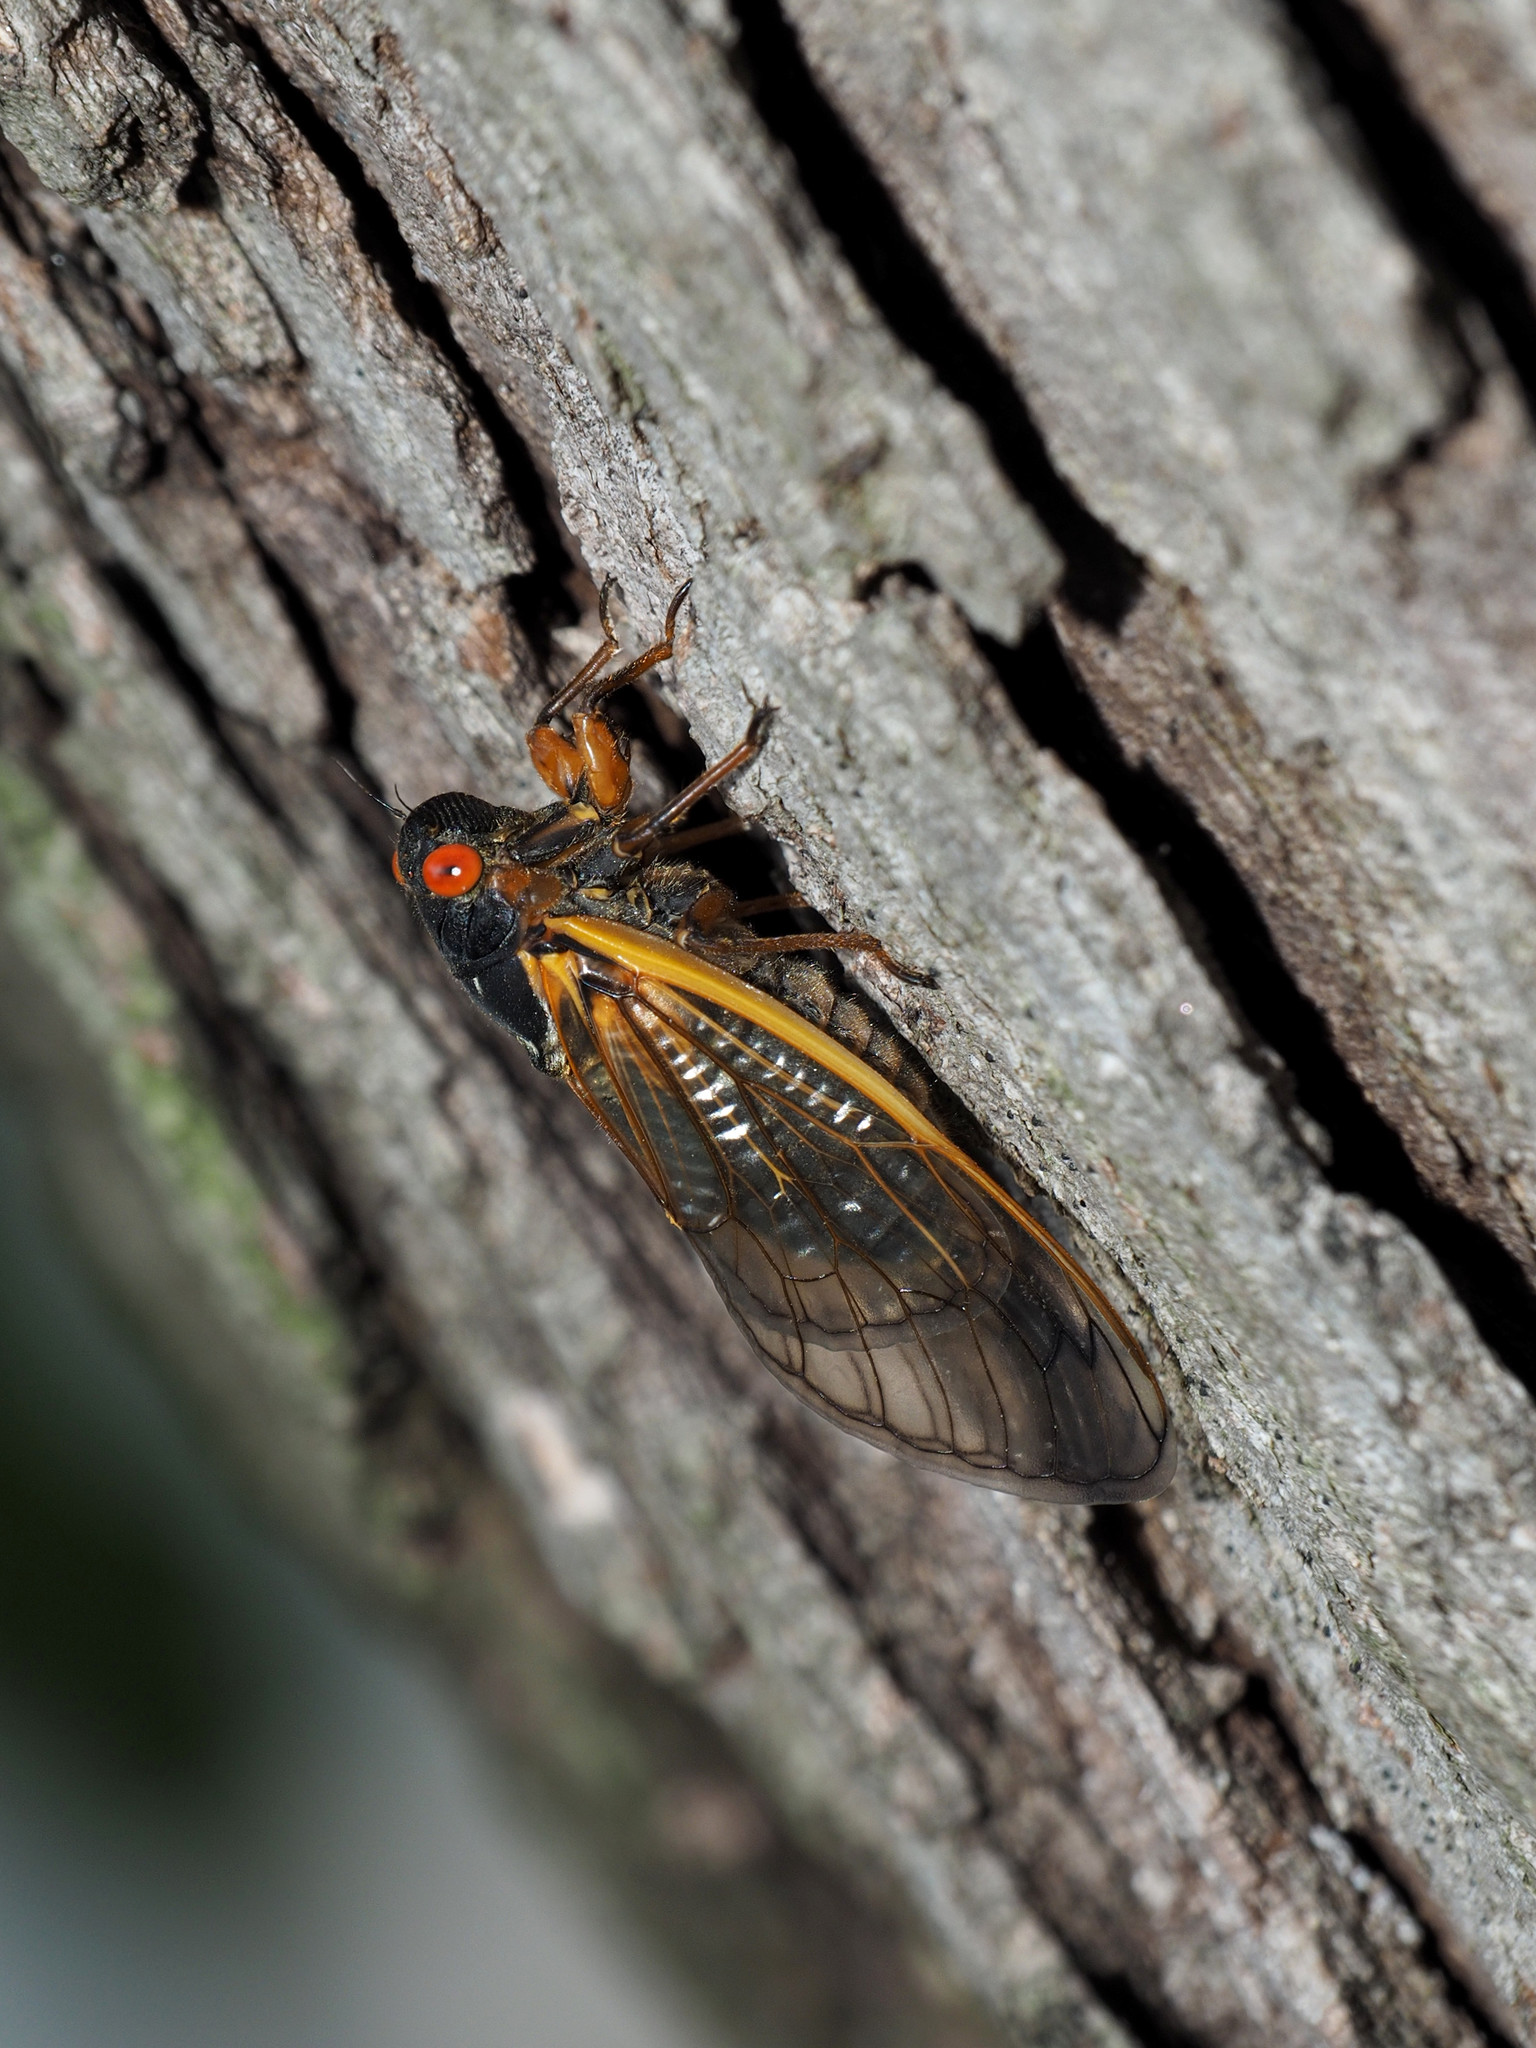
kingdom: Animalia
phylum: Arthropoda
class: Insecta
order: Hemiptera
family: Cicadidae
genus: Magicicada
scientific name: Magicicada septendecim
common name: Periodical cicada
